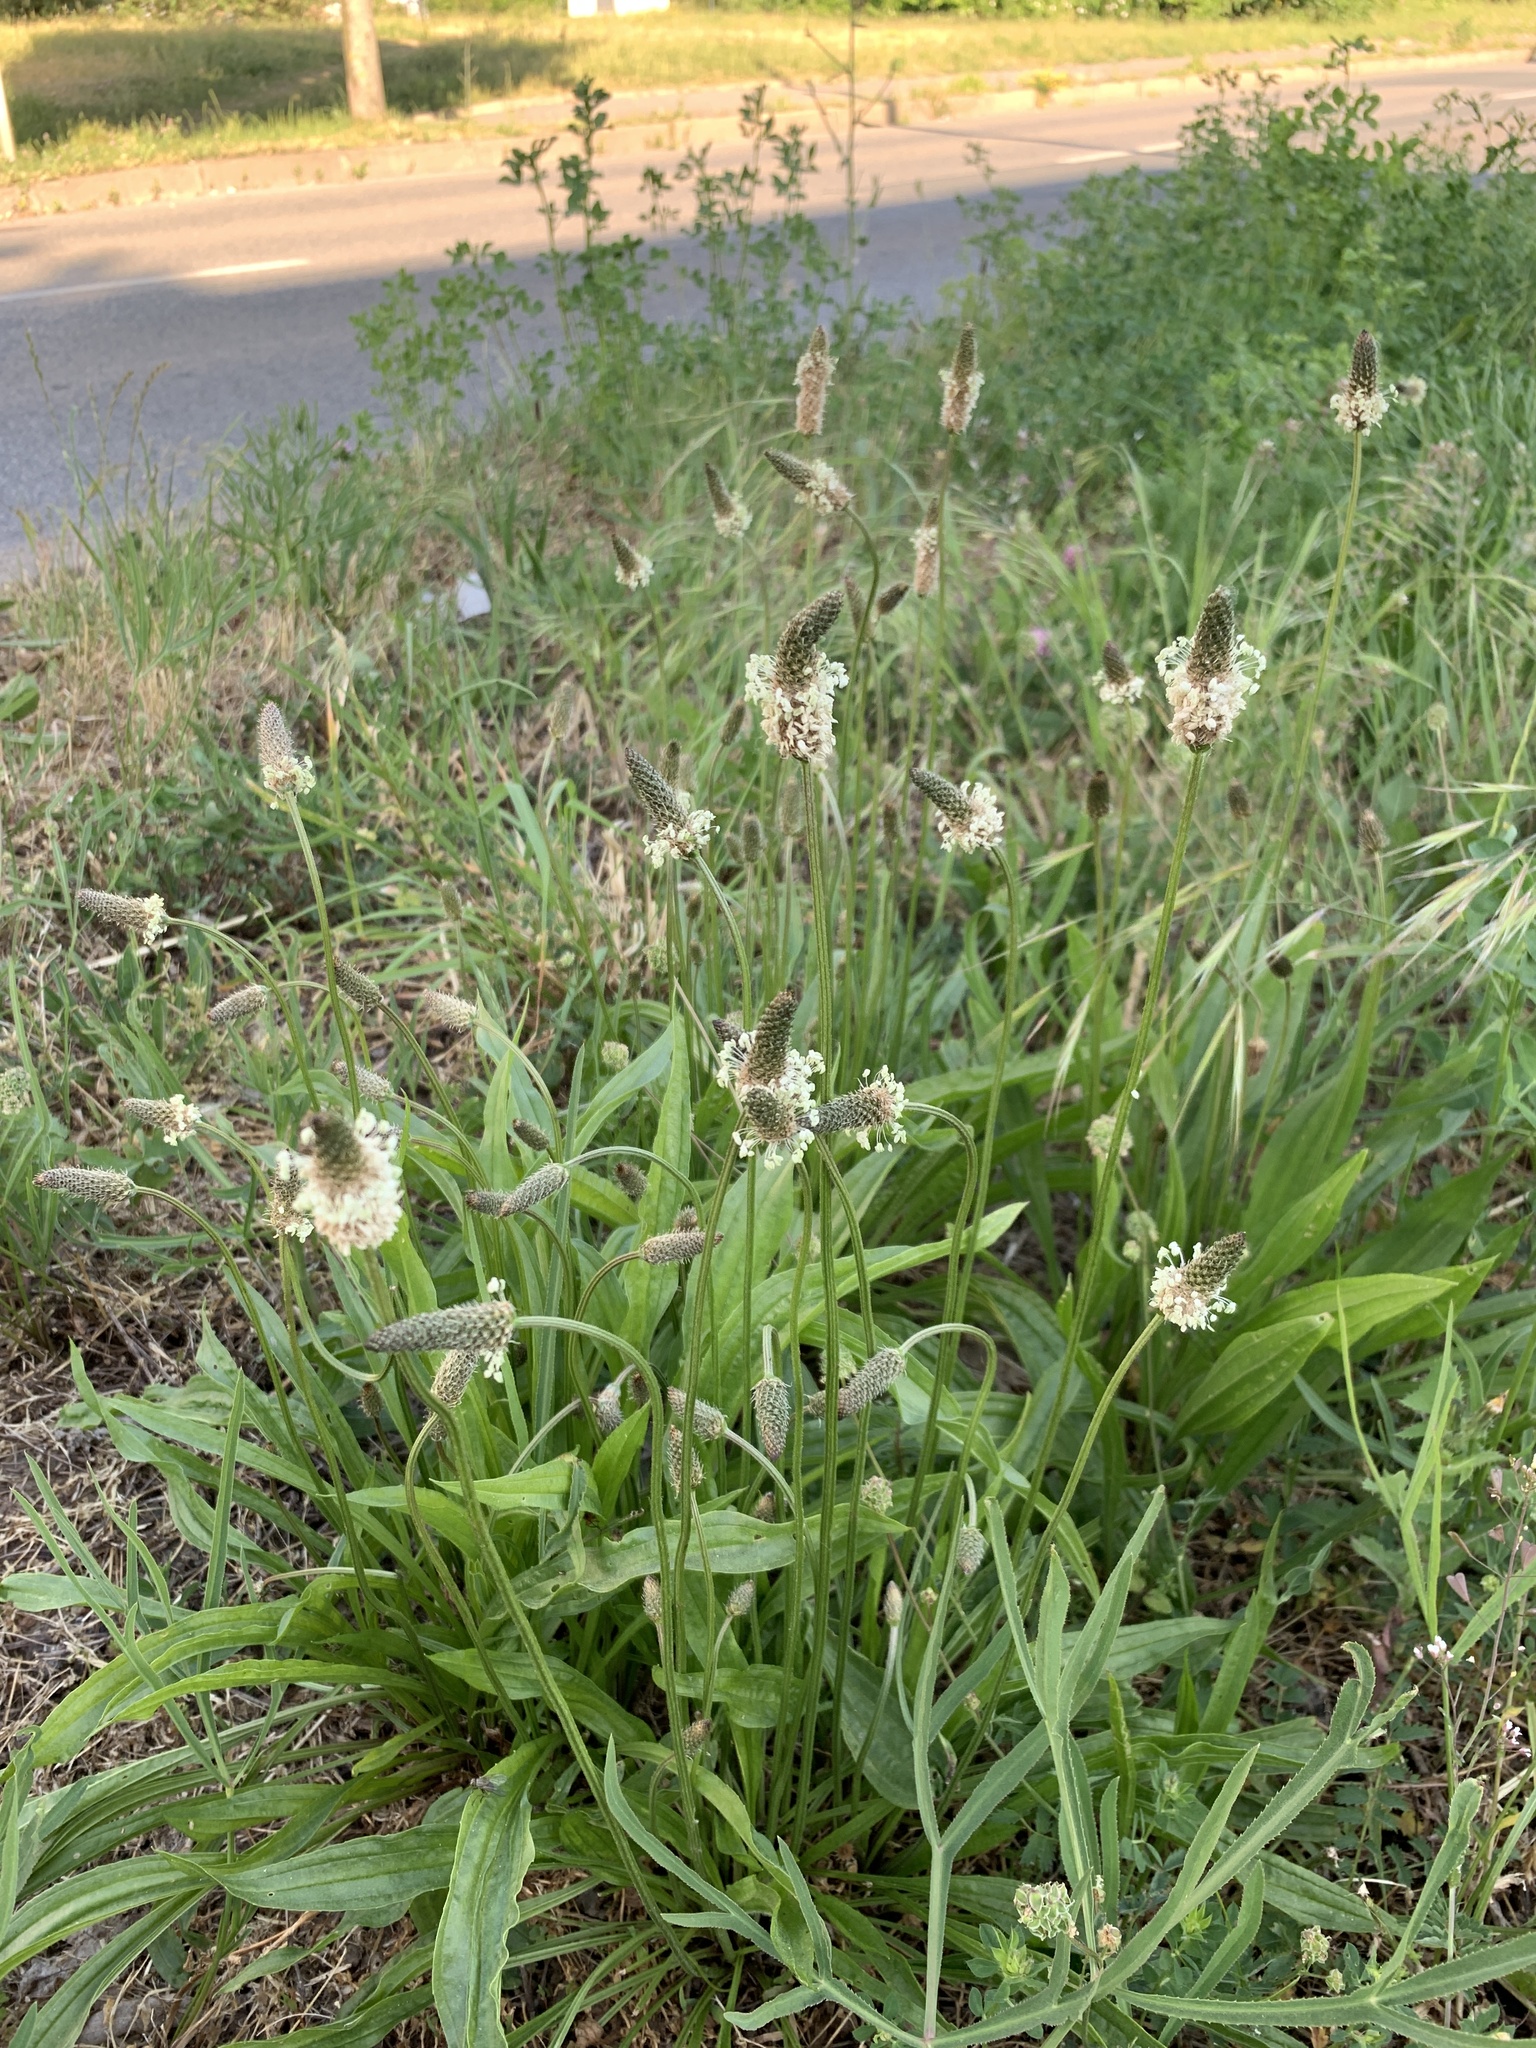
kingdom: Plantae
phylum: Tracheophyta
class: Magnoliopsida
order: Lamiales
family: Plantaginaceae
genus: Plantago
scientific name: Plantago lanceolata
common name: Ribwort plantain
